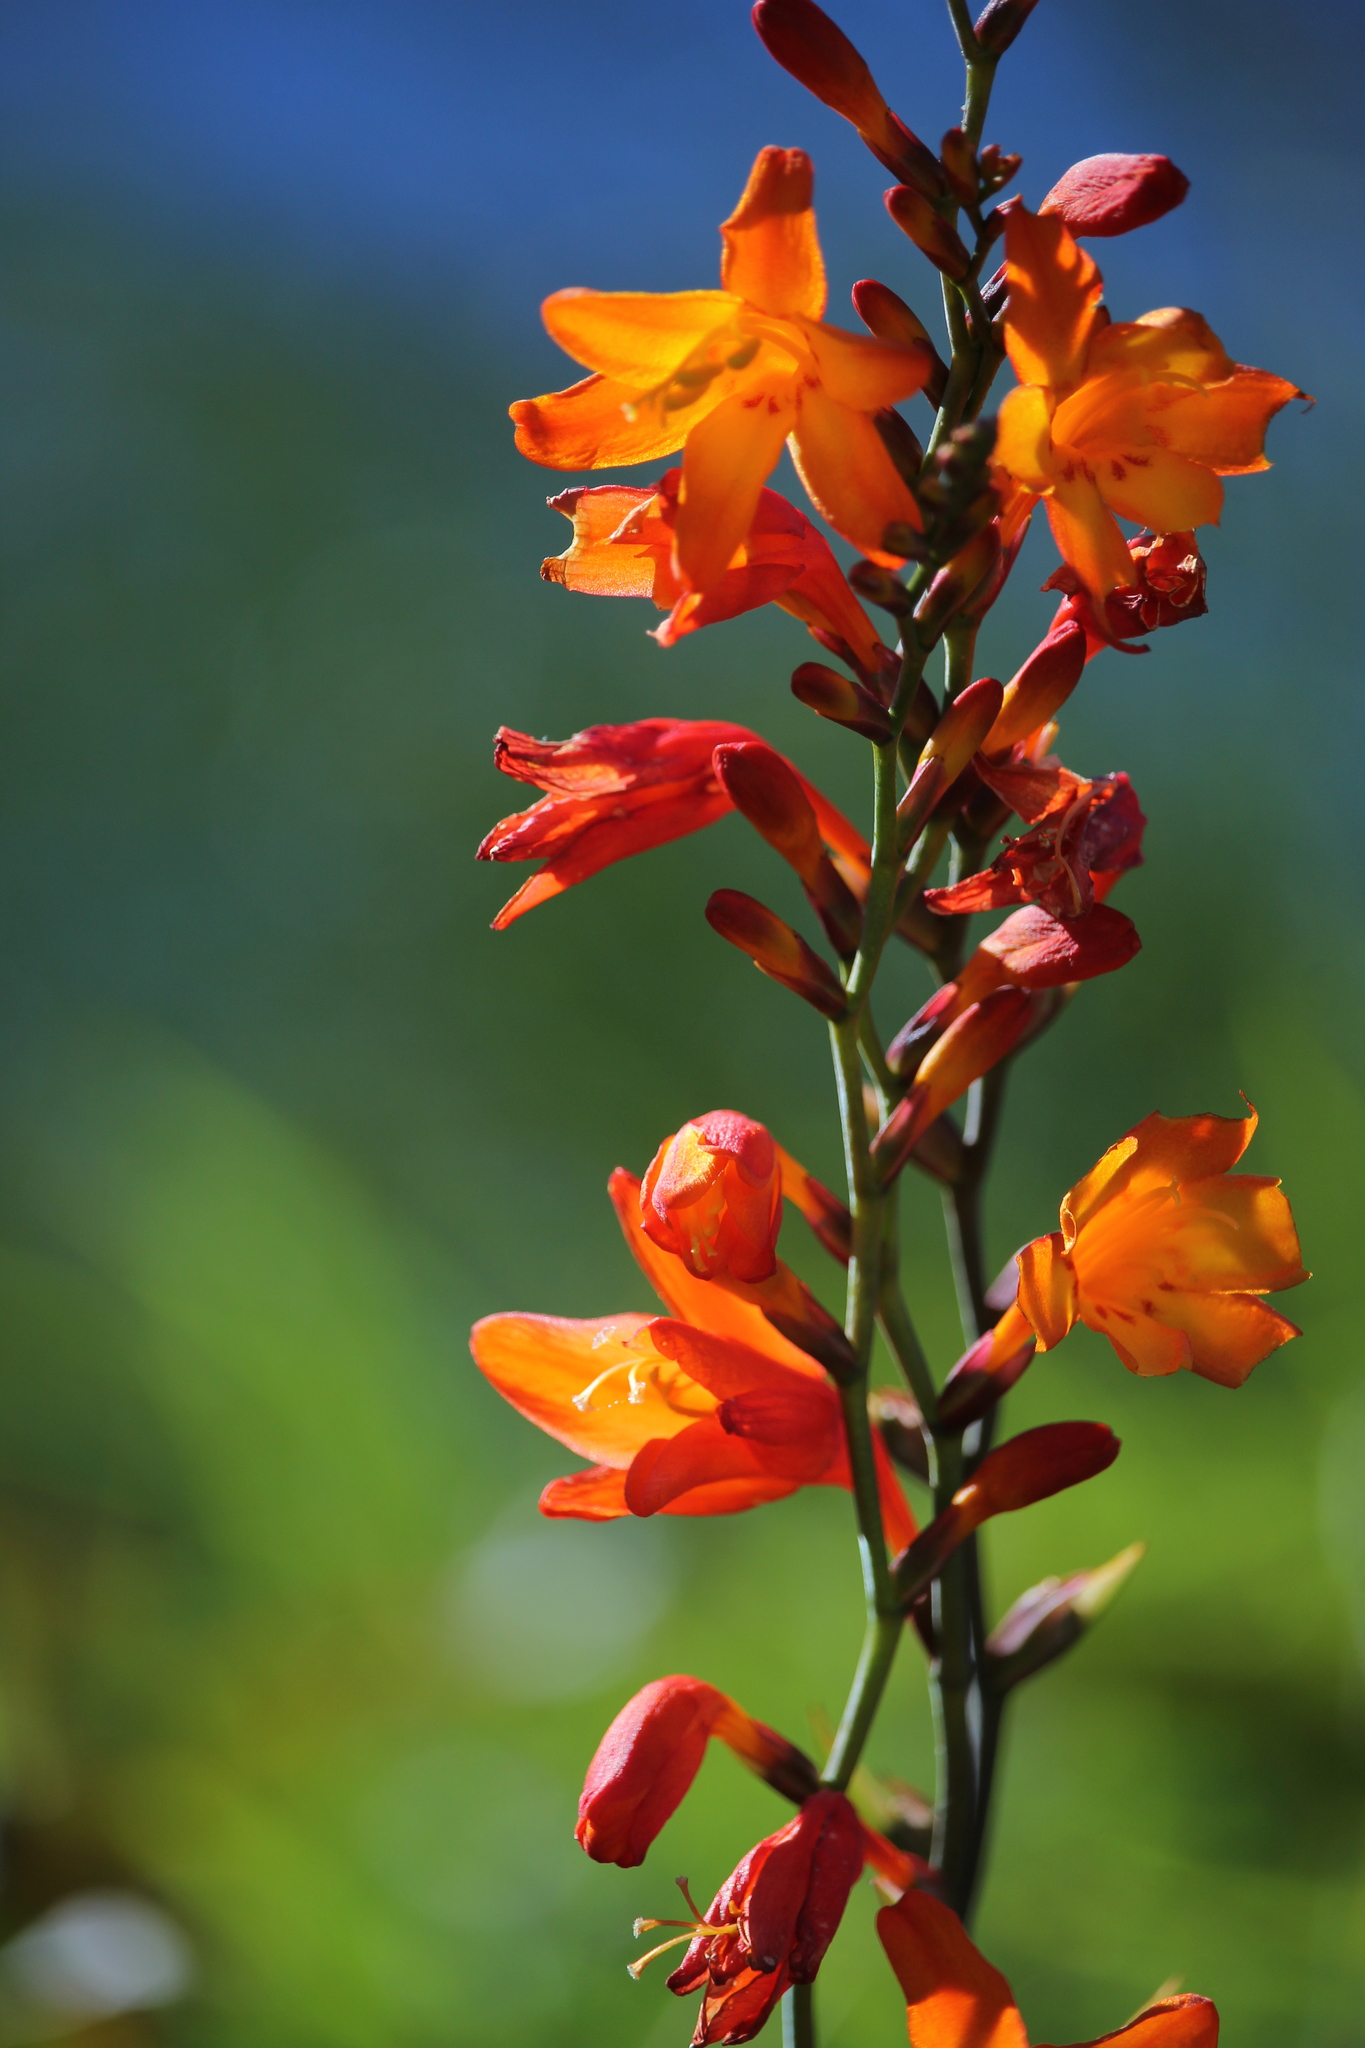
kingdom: Plantae
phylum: Tracheophyta
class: Liliopsida
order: Asparagales
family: Iridaceae
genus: Crocosmia
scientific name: Crocosmia crocosmiiflora
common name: Montbretia
